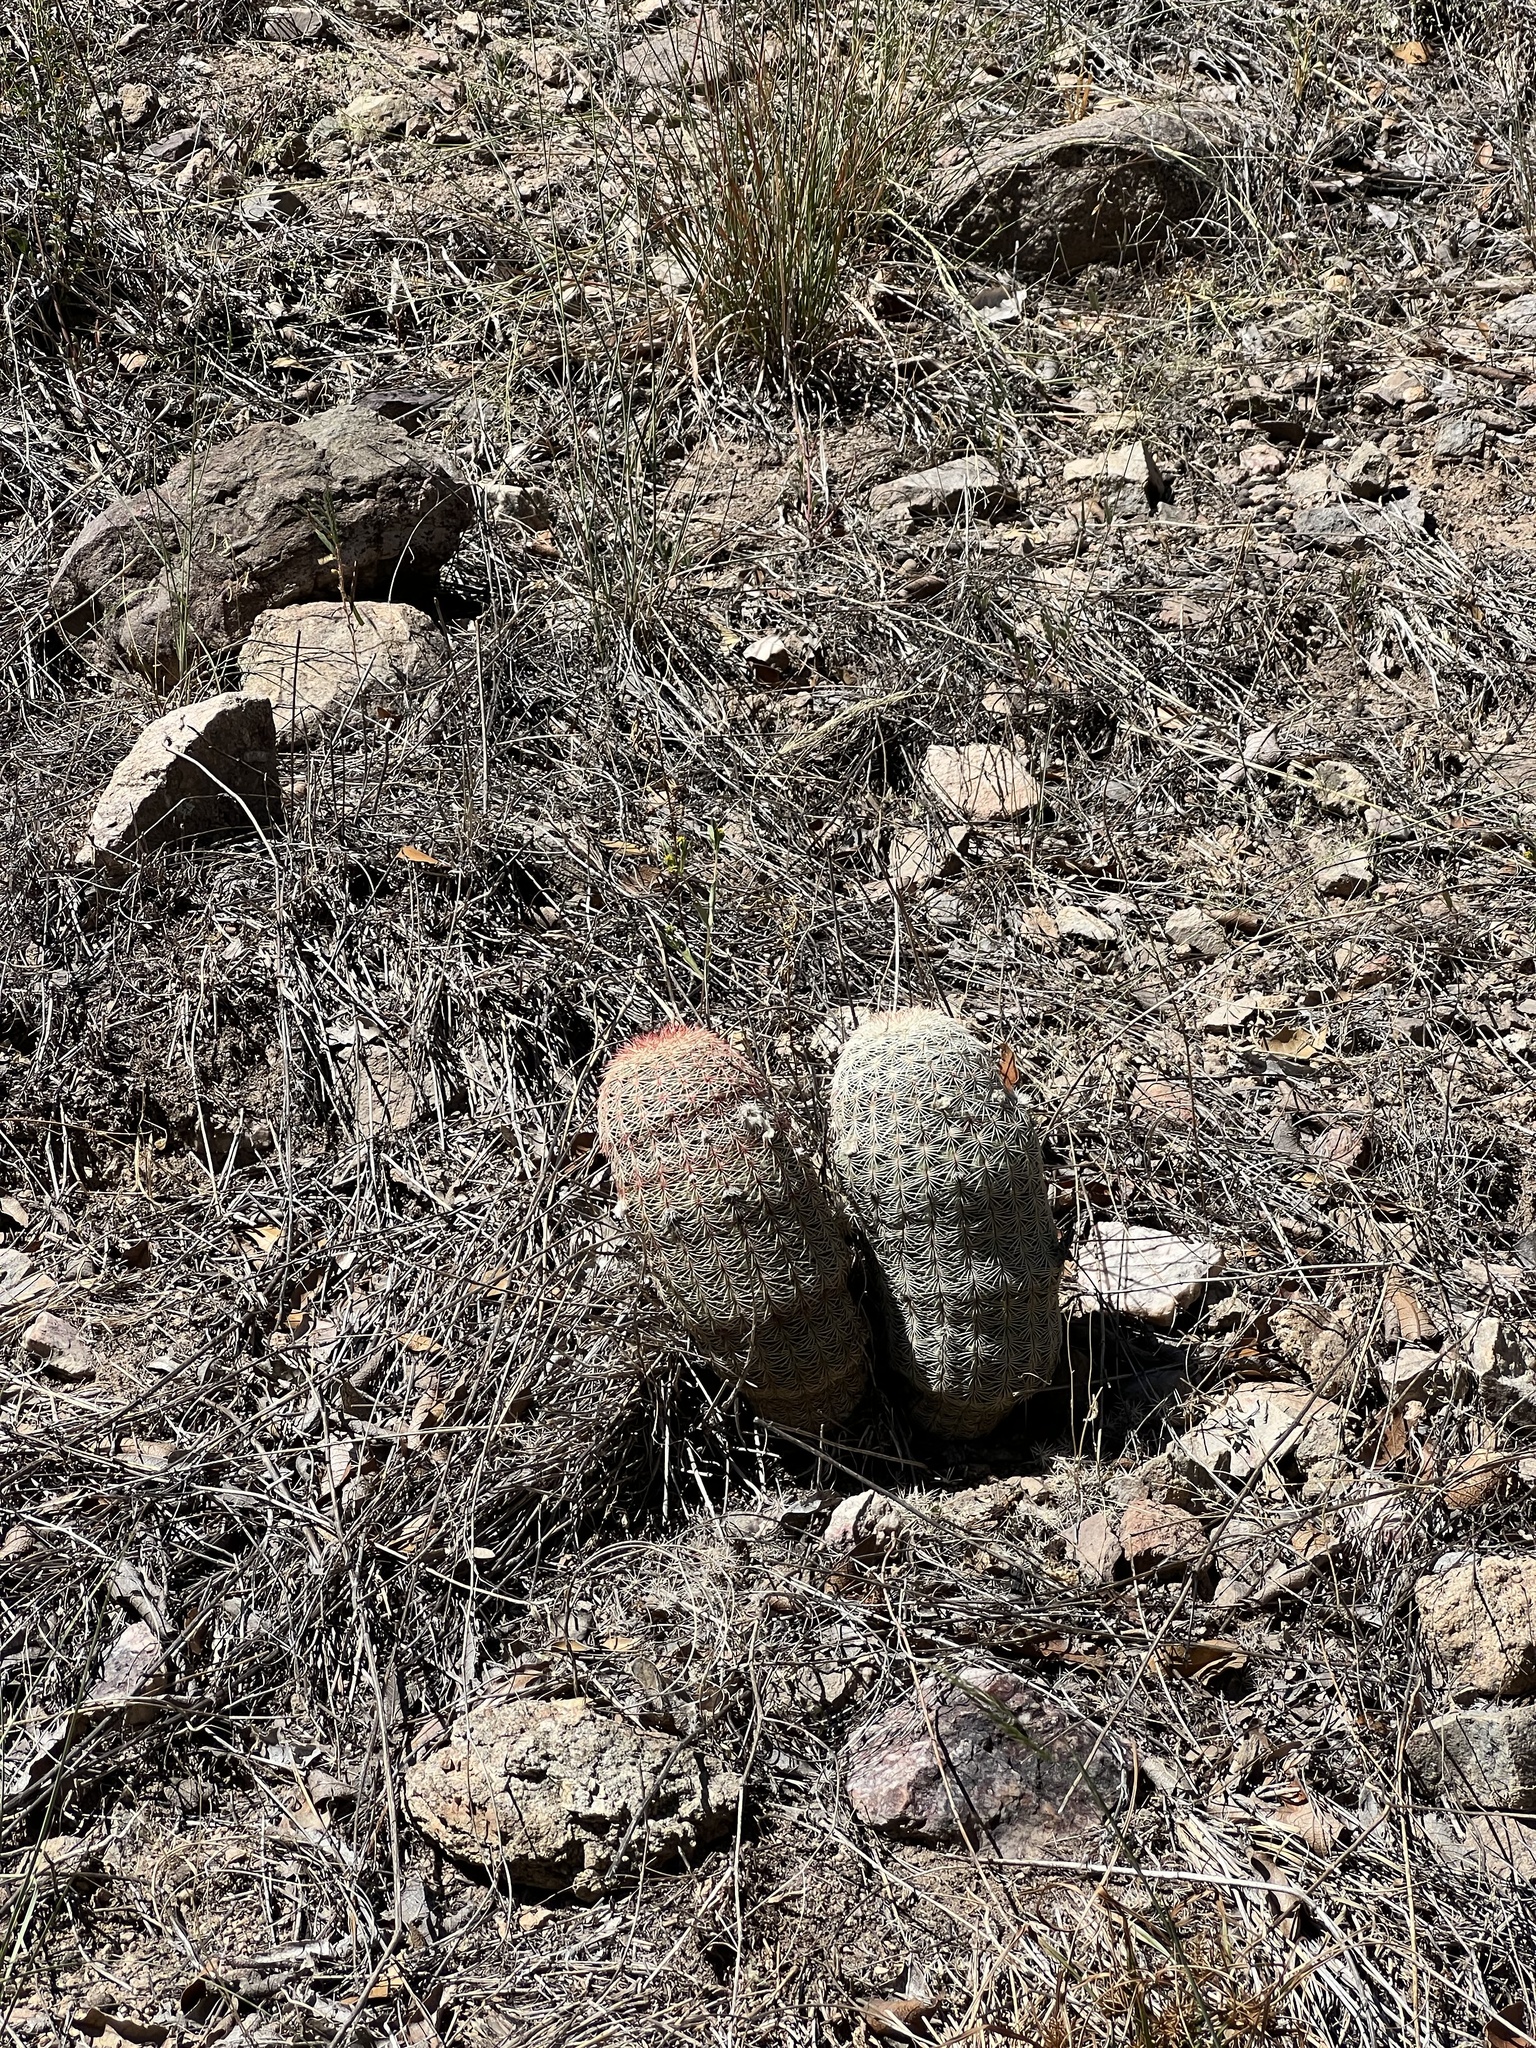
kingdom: Plantae
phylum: Tracheophyta
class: Magnoliopsida
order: Caryophyllales
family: Cactaceae
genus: Echinocereus
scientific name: Echinocereus rigidissimus
